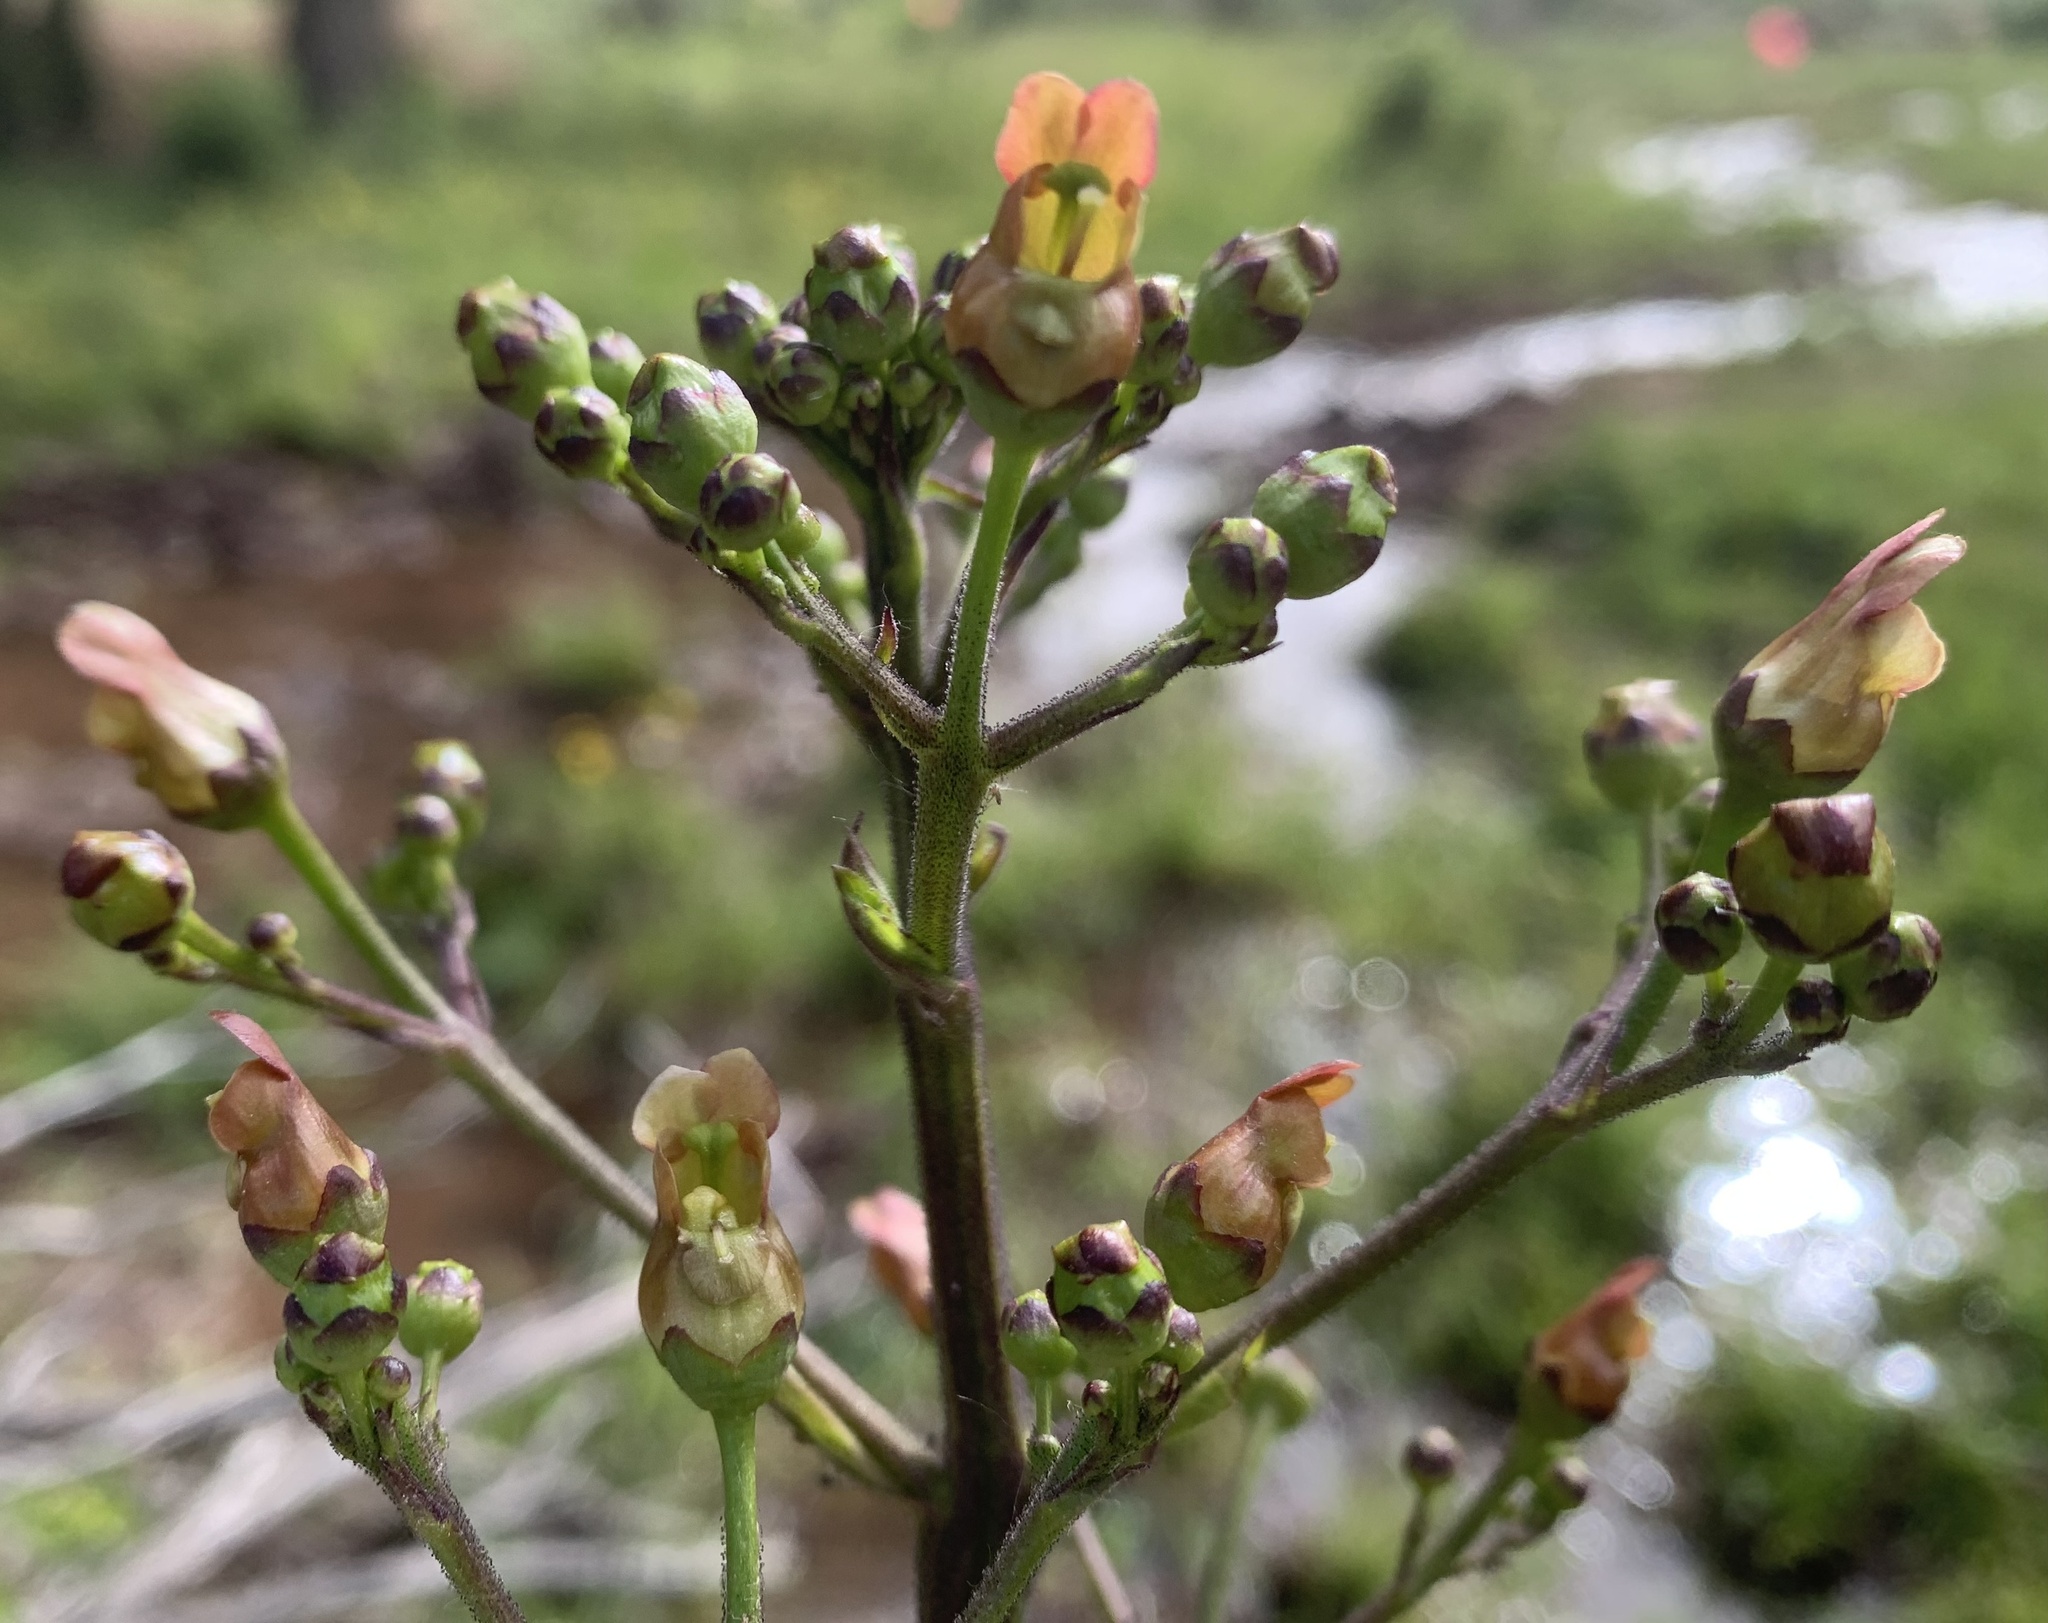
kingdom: Plantae
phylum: Tracheophyta
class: Magnoliopsida
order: Lamiales
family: Scrophulariaceae
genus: Scrophularia
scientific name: Scrophularia lanceolata
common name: American figwort
